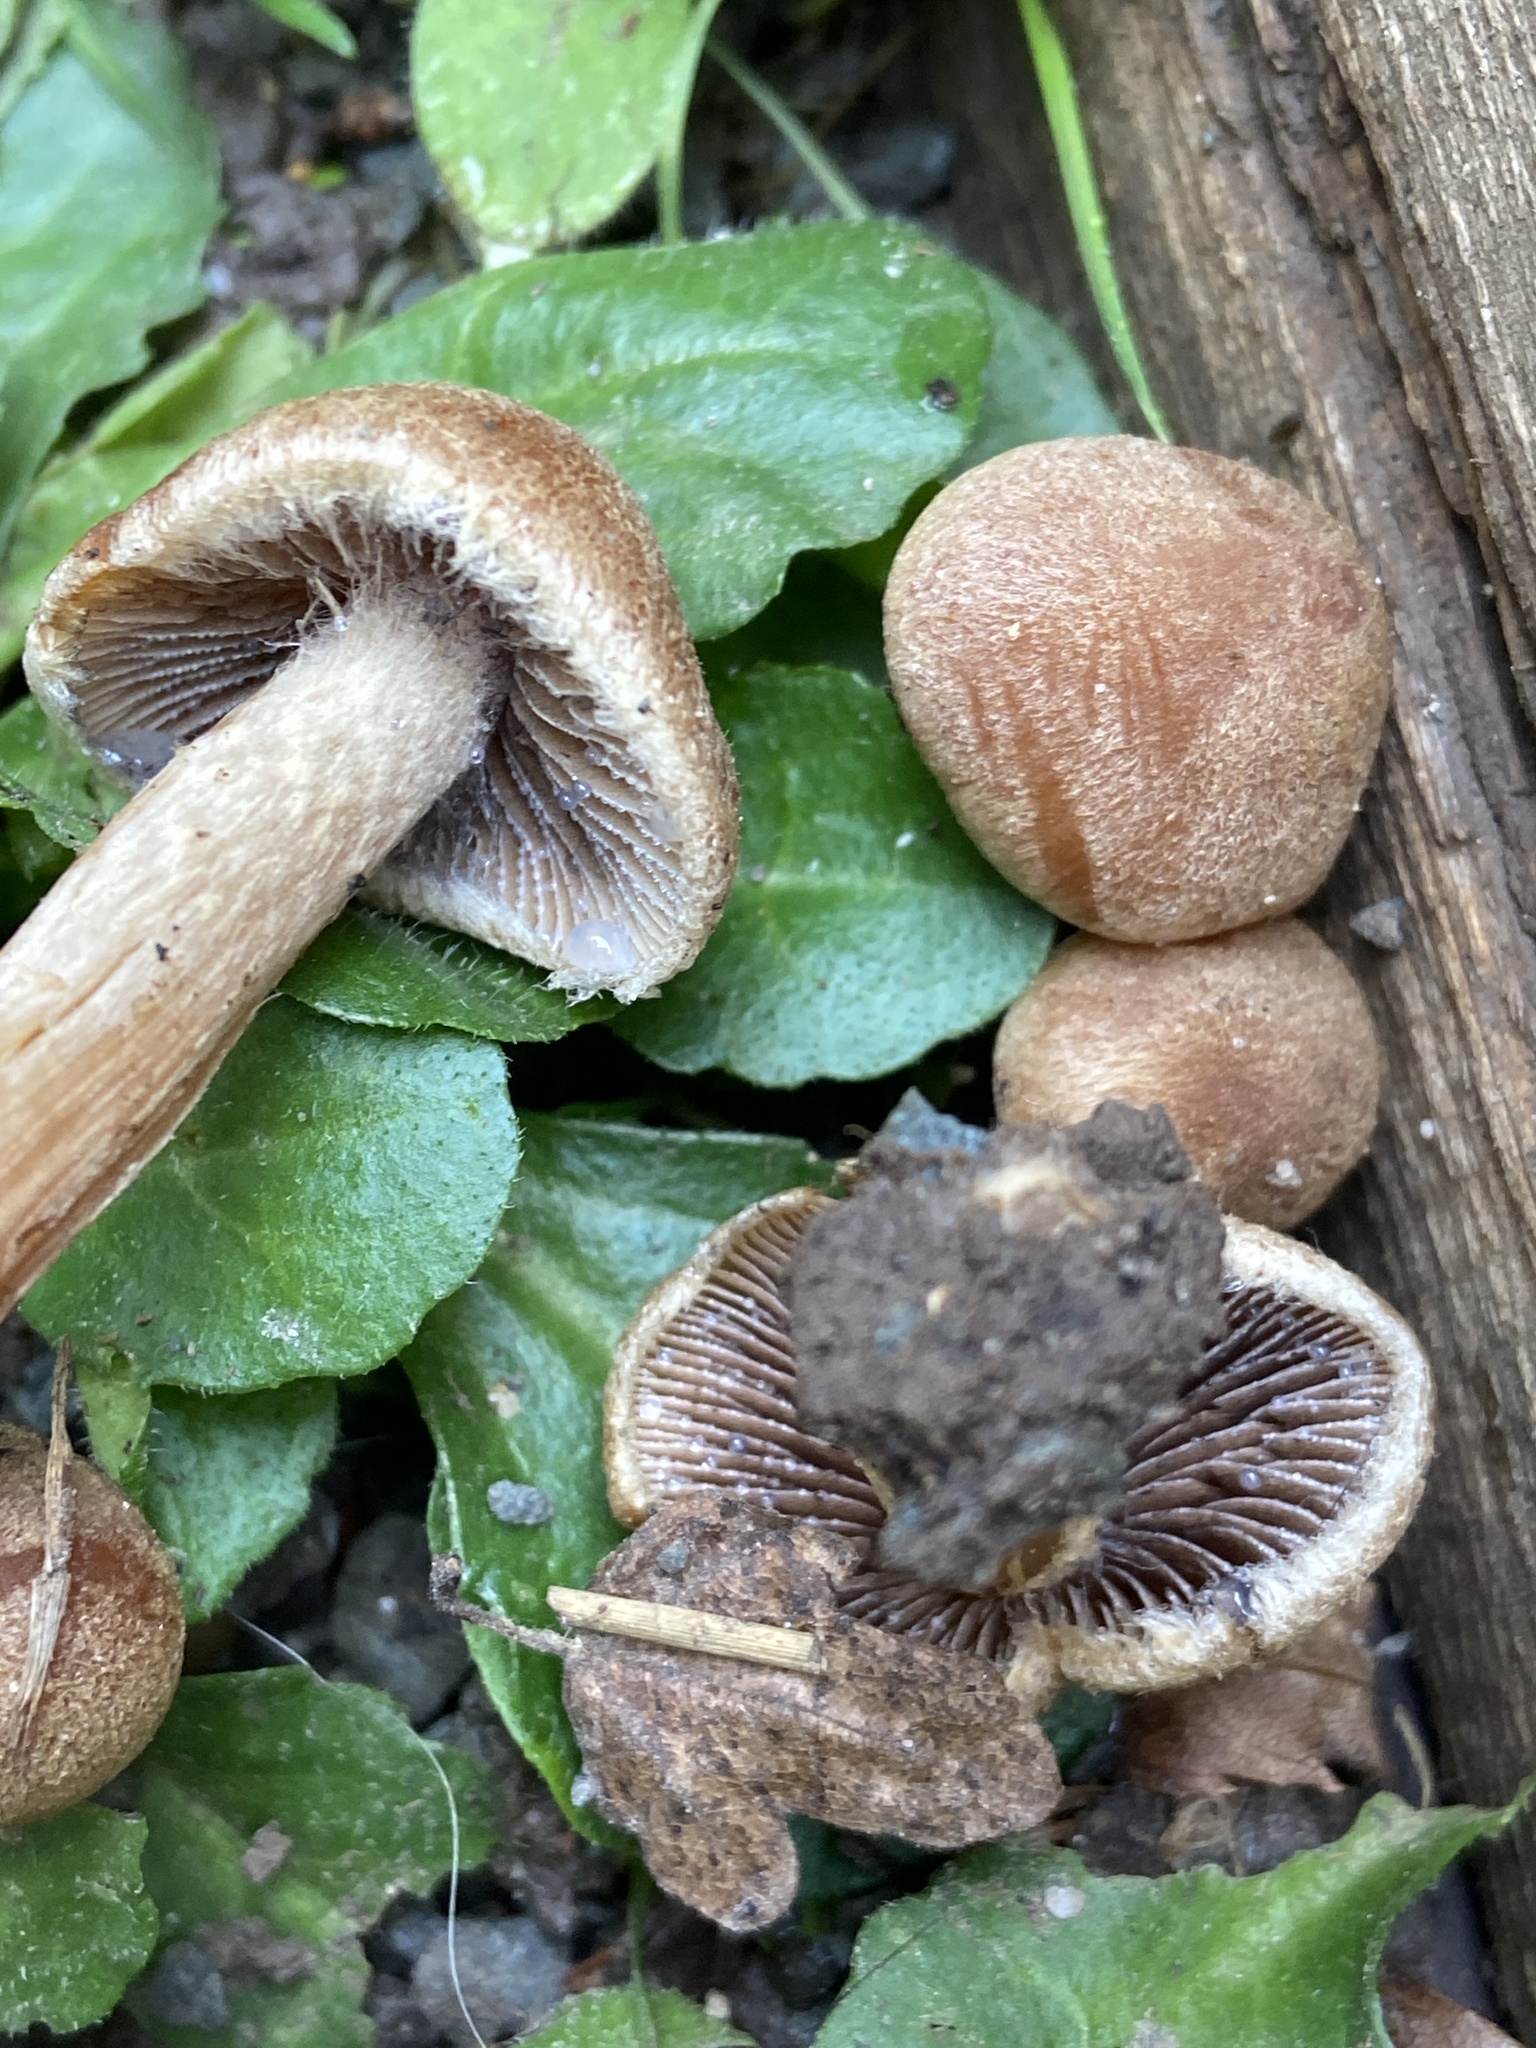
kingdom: Fungi
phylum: Basidiomycota
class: Agaricomycetes
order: Agaricales
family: Psathyrellaceae
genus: Lacrymaria
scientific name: Lacrymaria lacrymabunda
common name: Weeping widow
